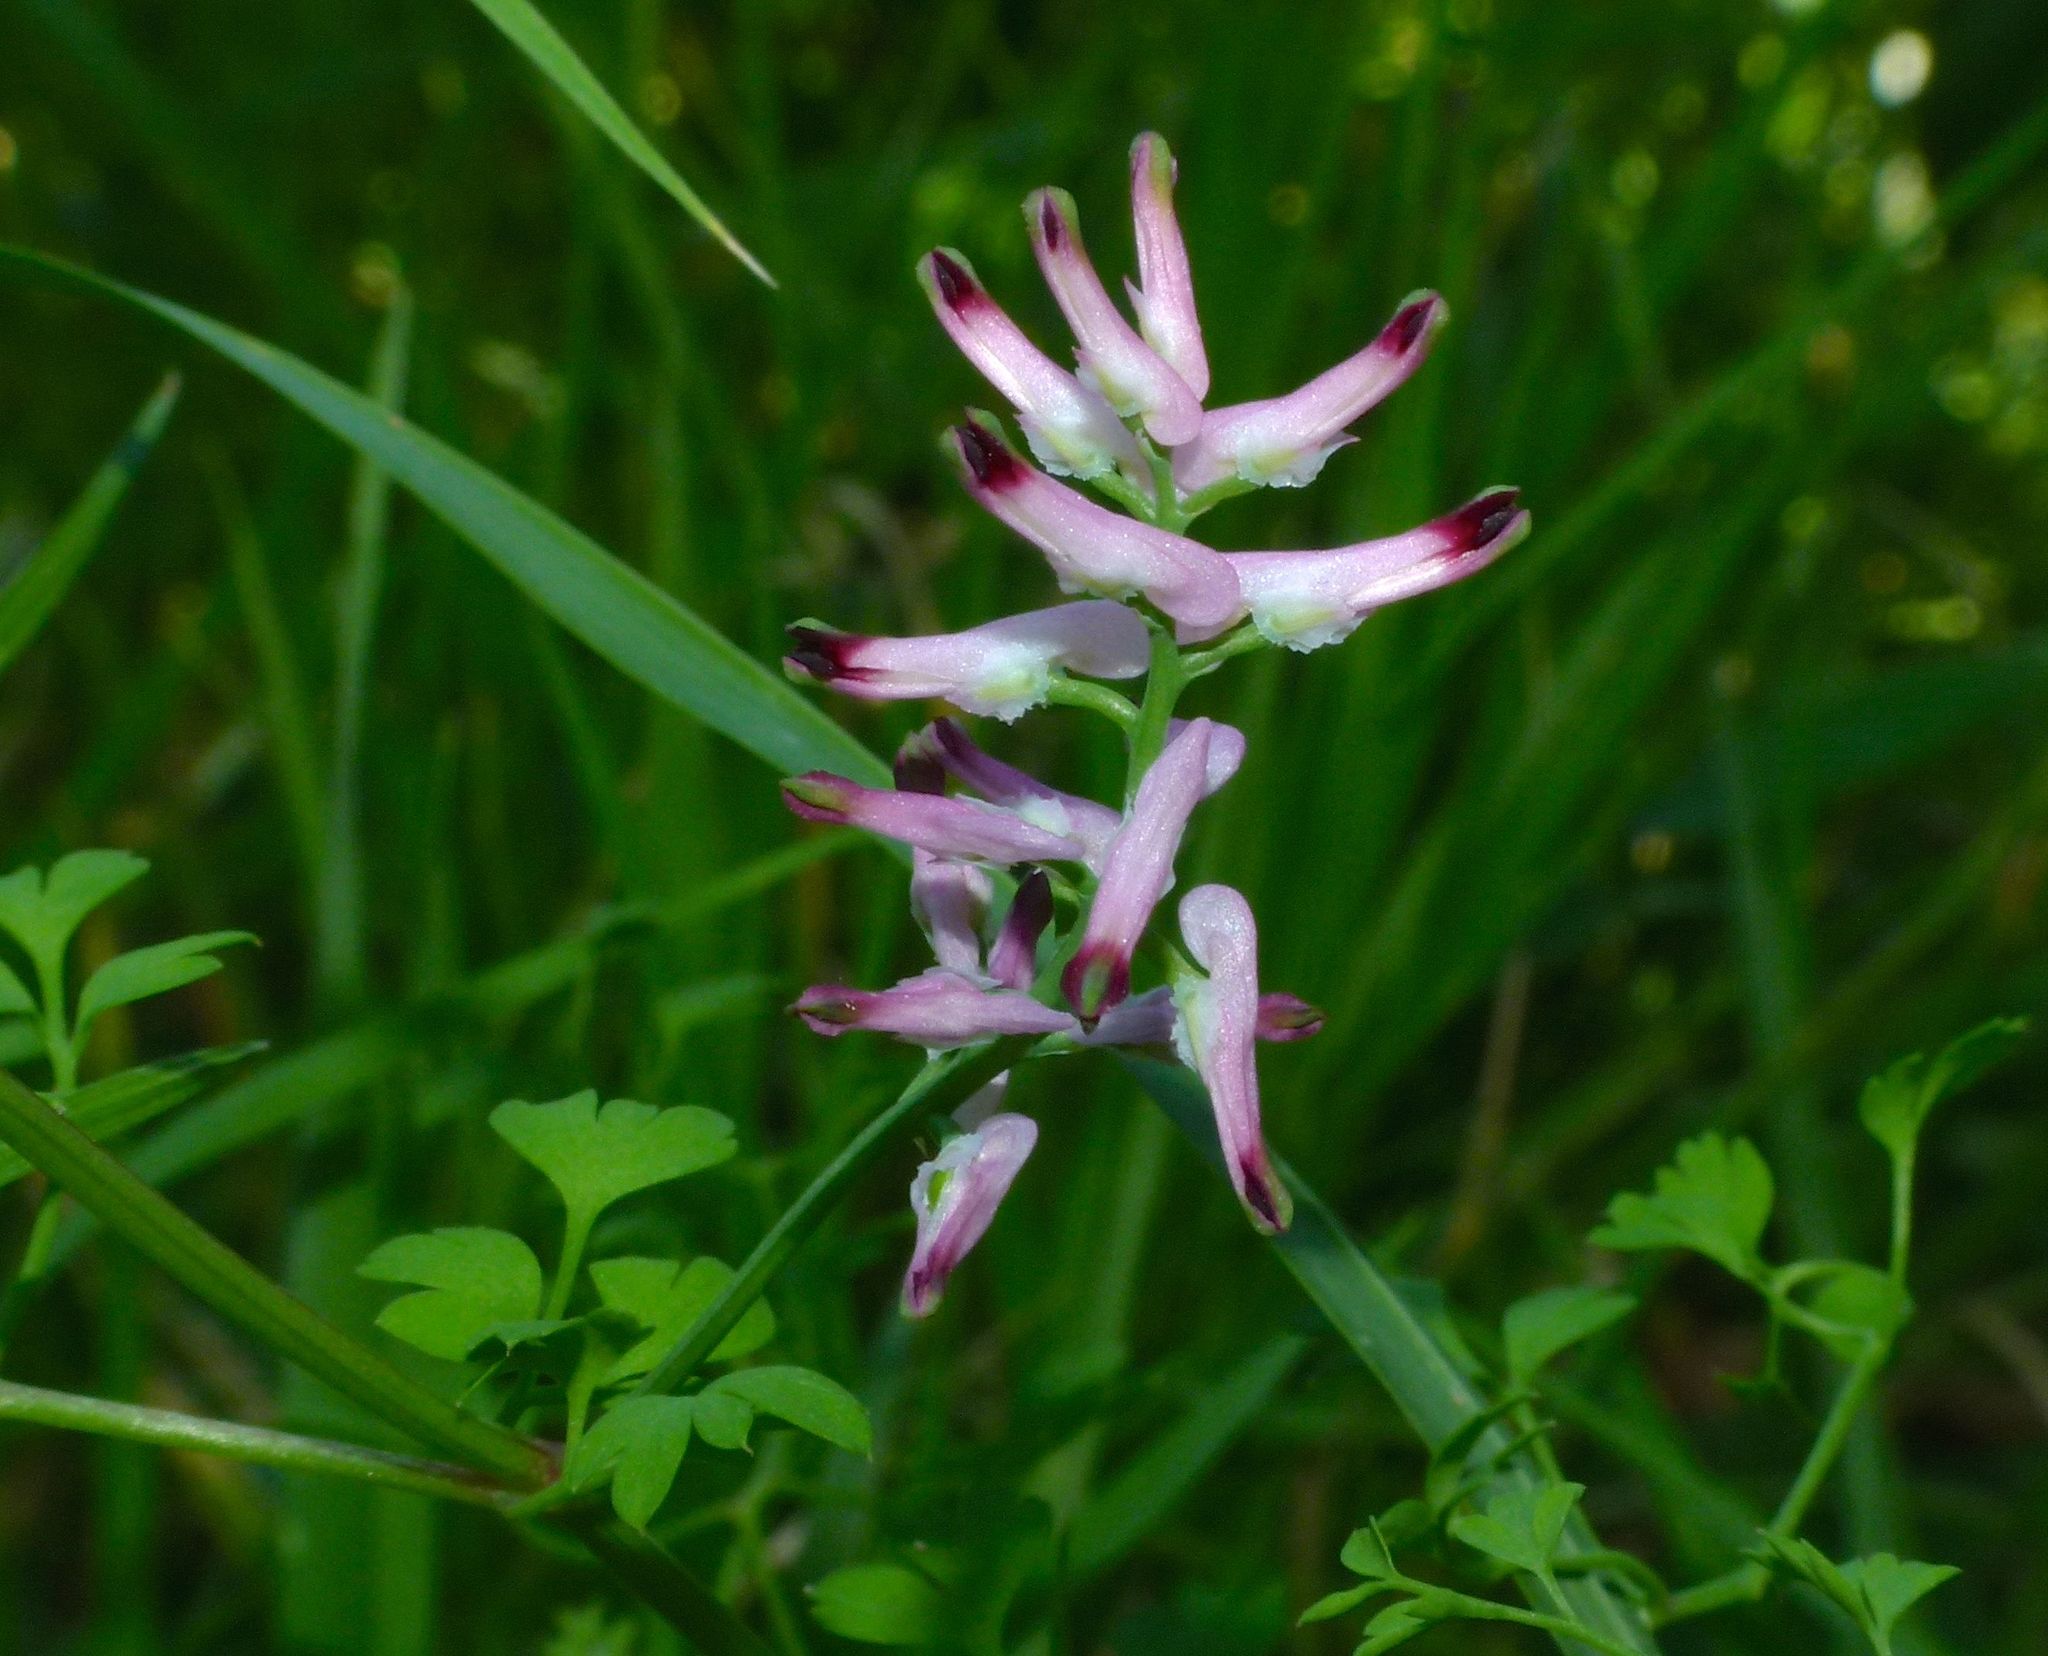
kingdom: Plantae
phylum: Tracheophyta
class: Magnoliopsida
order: Ranunculales
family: Papaveraceae
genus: Fumaria
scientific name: Fumaria muralis
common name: Common ramping-fumitory
